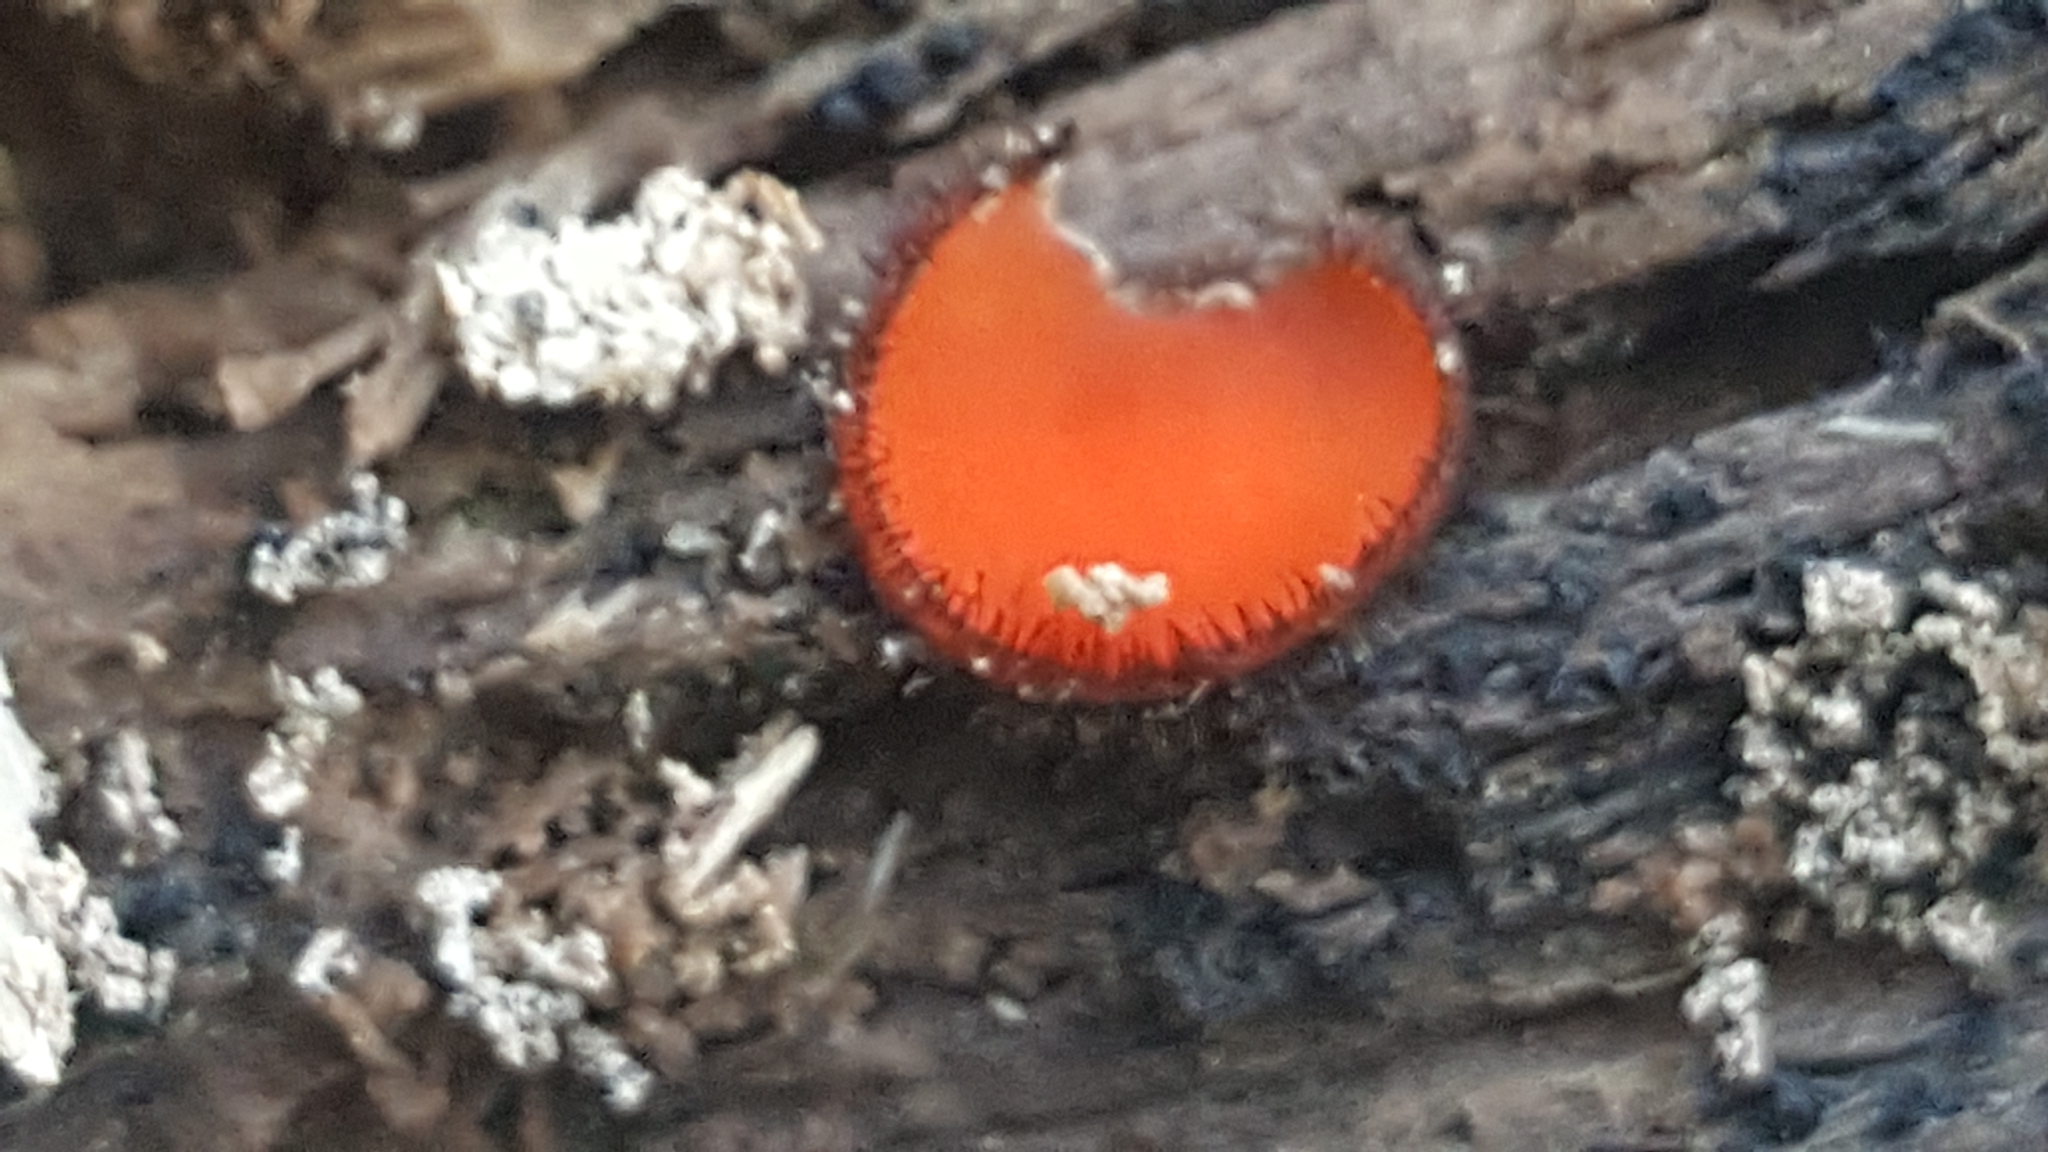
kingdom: Fungi
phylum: Ascomycota
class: Pezizomycetes
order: Pezizales
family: Pyronemataceae
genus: Scutellinia
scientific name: Scutellinia scutellata
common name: Common eyelash
